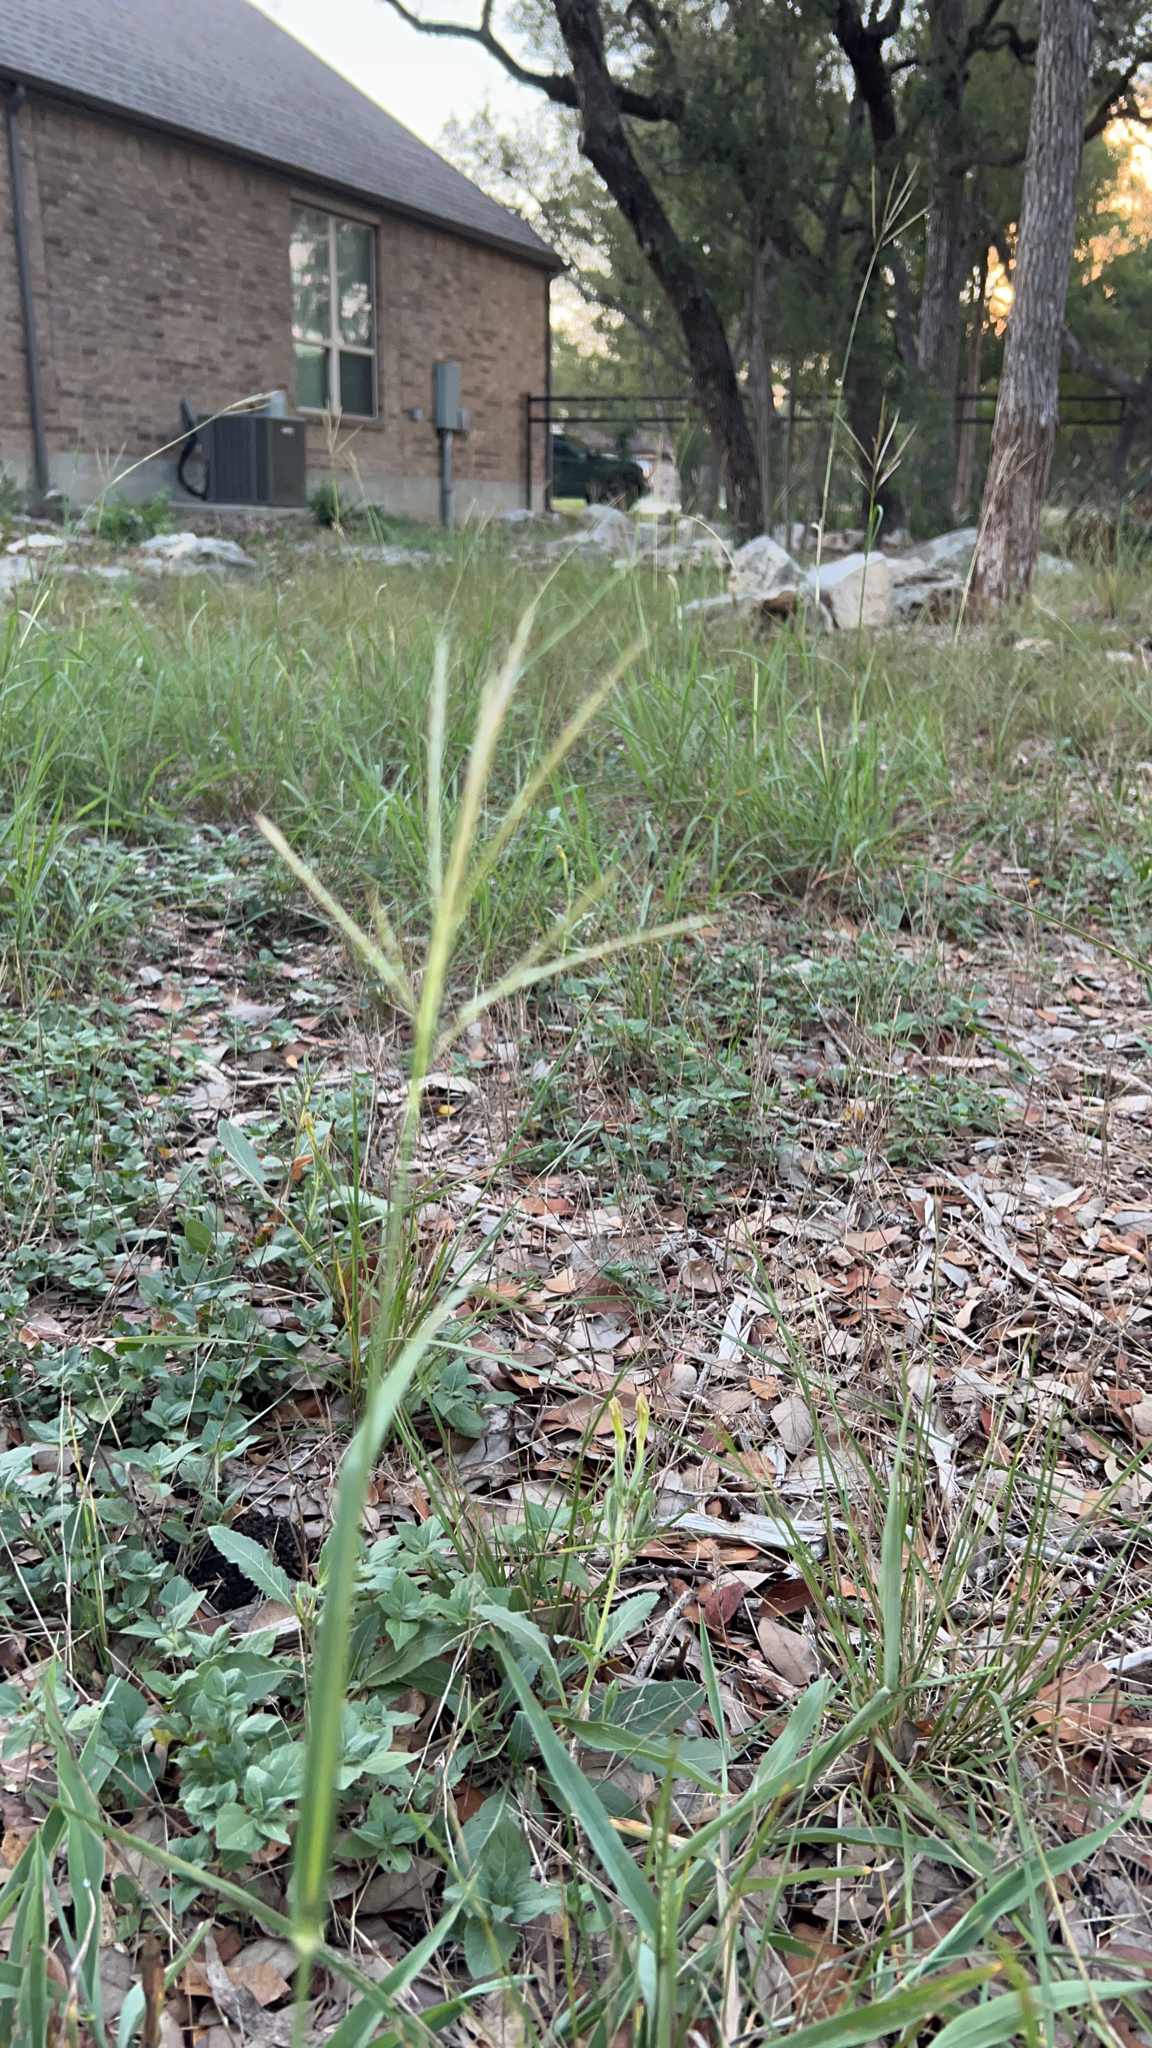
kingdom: Plantae
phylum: Tracheophyta
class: Liliopsida
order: Poales
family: Poaceae
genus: Bothriochloa
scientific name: Bothriochloa ischaemum
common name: Yellow bluestem
